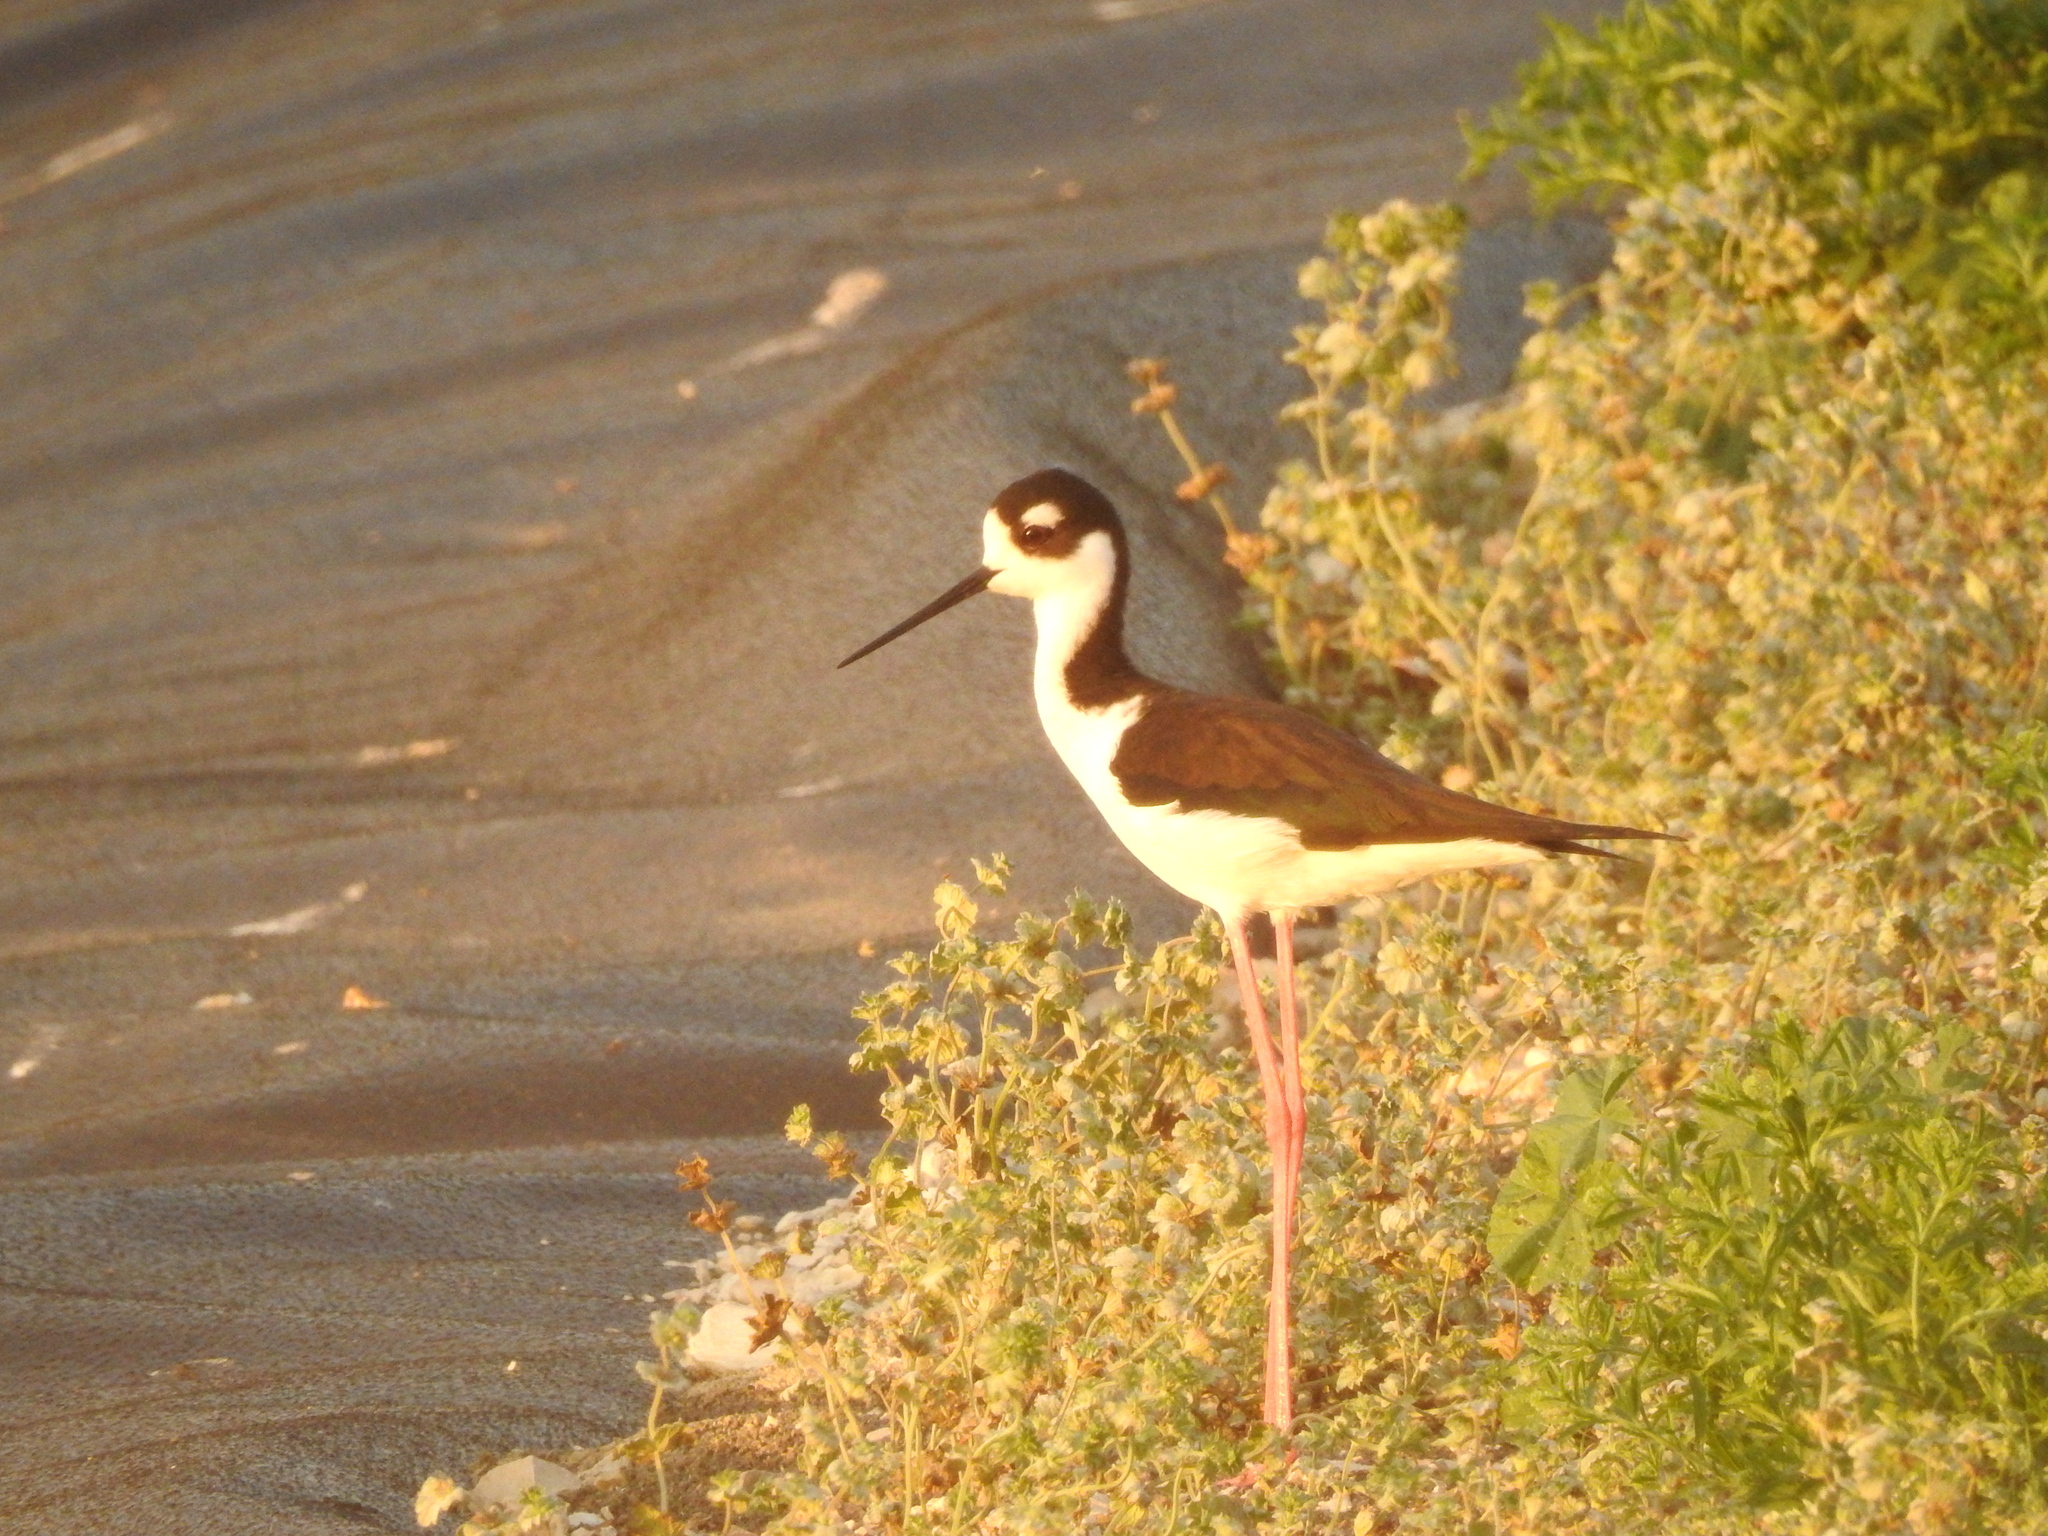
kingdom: Animalia
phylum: Chordata
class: Aves
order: Charadriiformes
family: Recurvirostridae
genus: Himantopus
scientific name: Himantopus mexicanus
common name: Black-necked stilt
